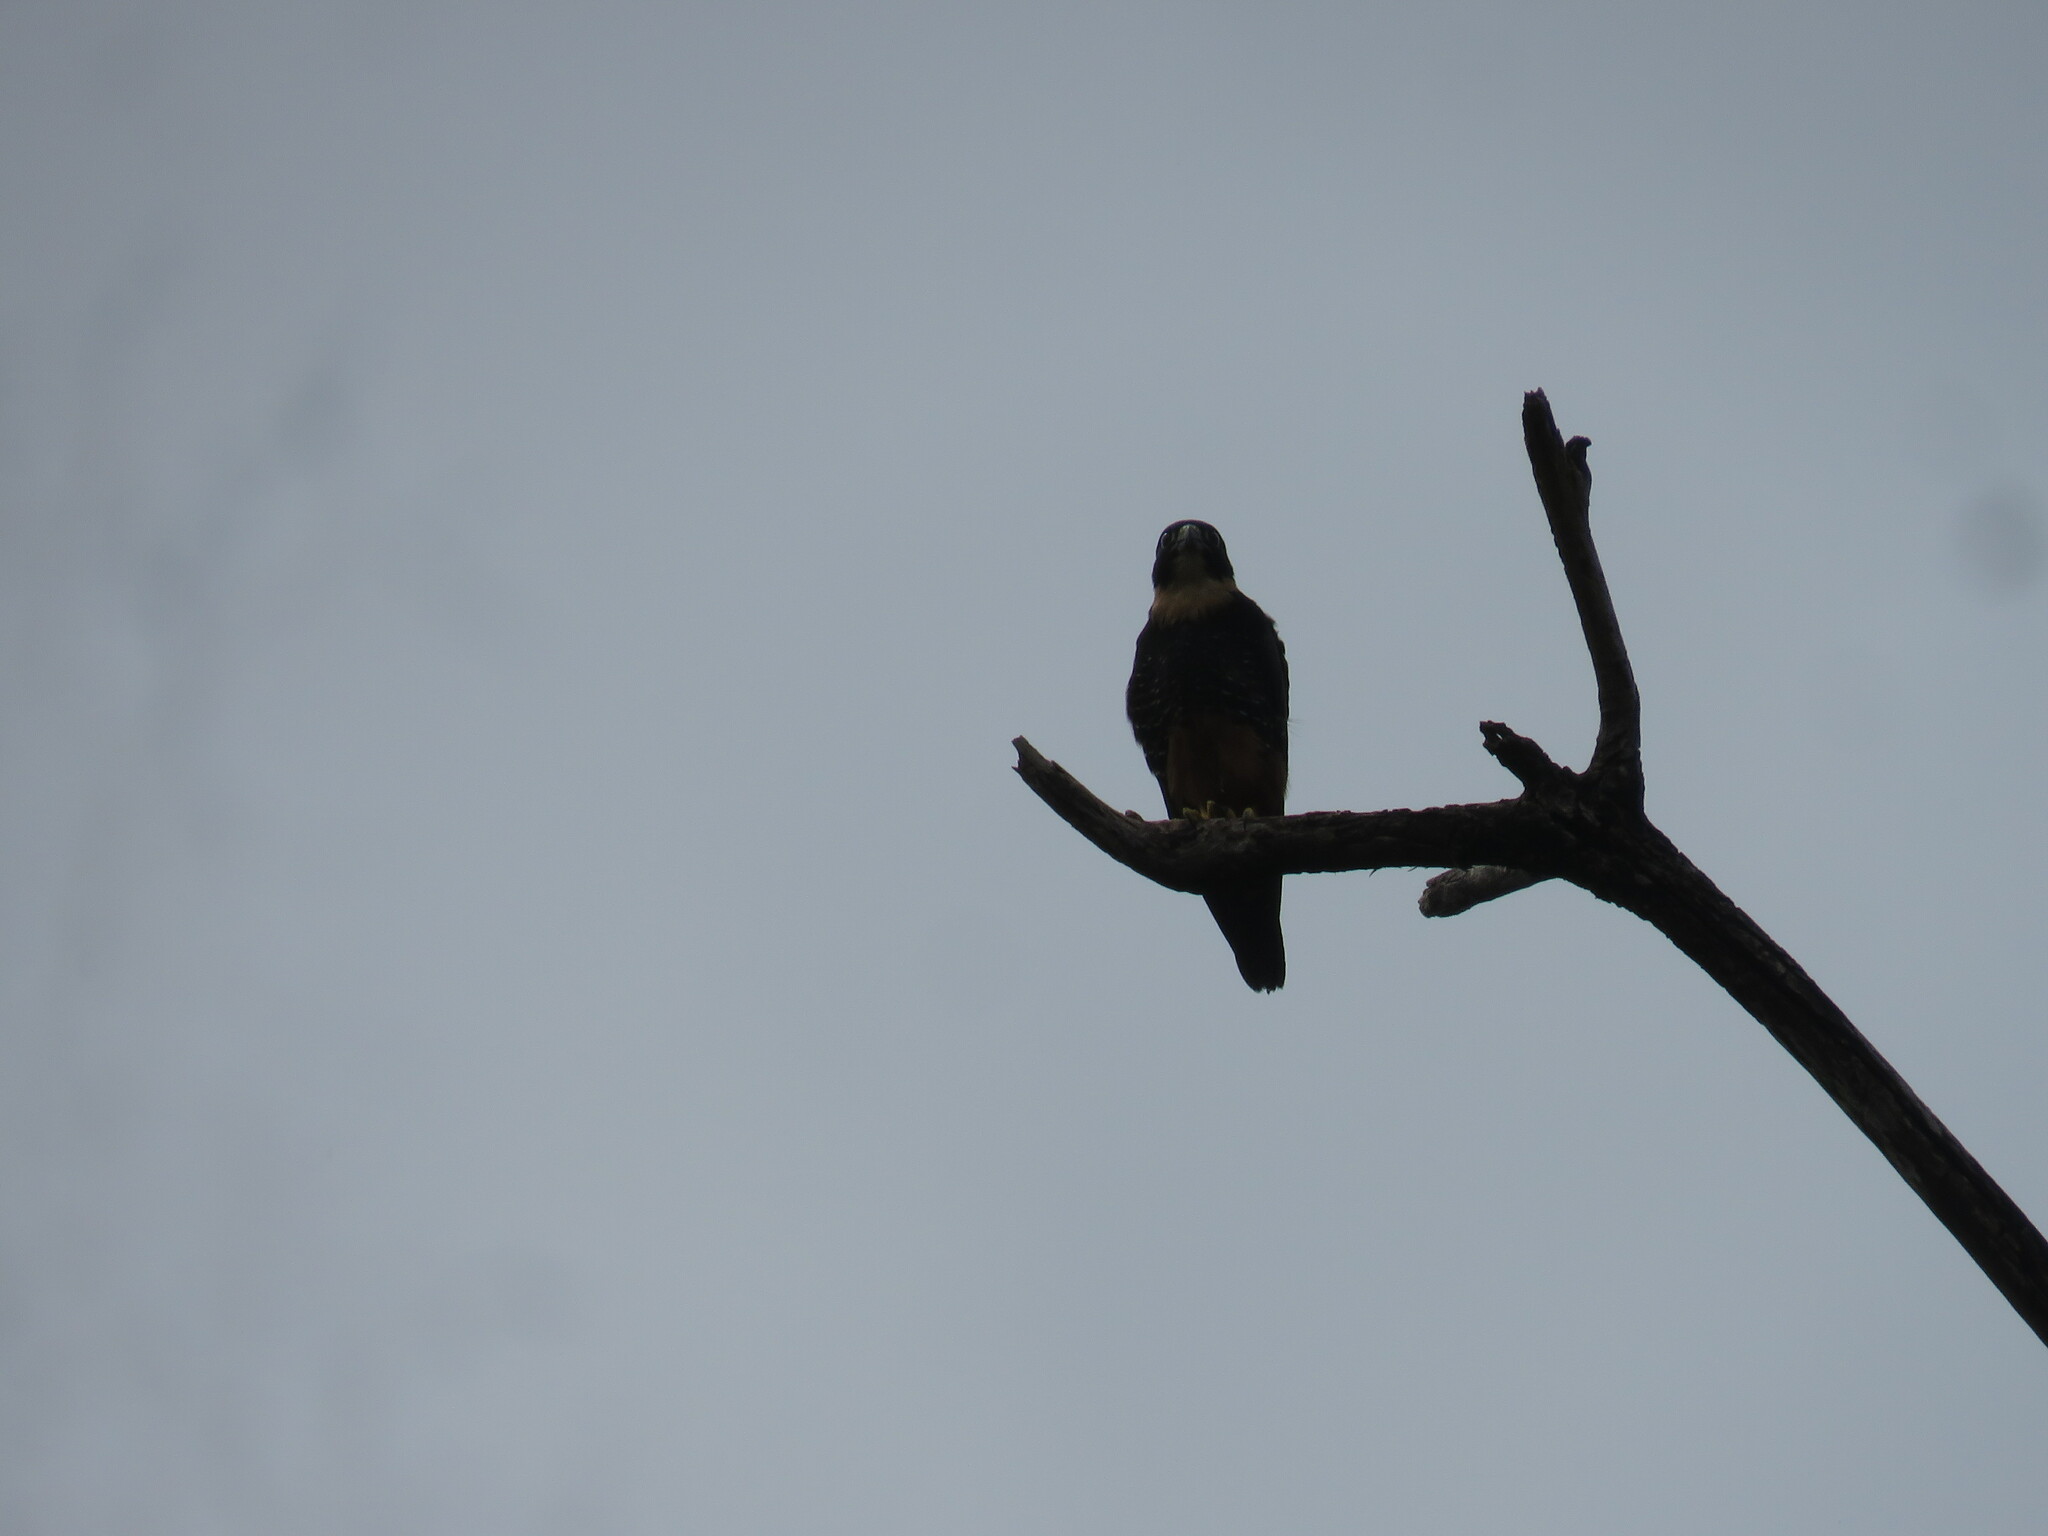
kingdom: Animalia
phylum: Chordata
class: Aves
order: Falconiformes
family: Falconidae
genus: Falco
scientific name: Falco rufigularis
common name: Bat falcon
